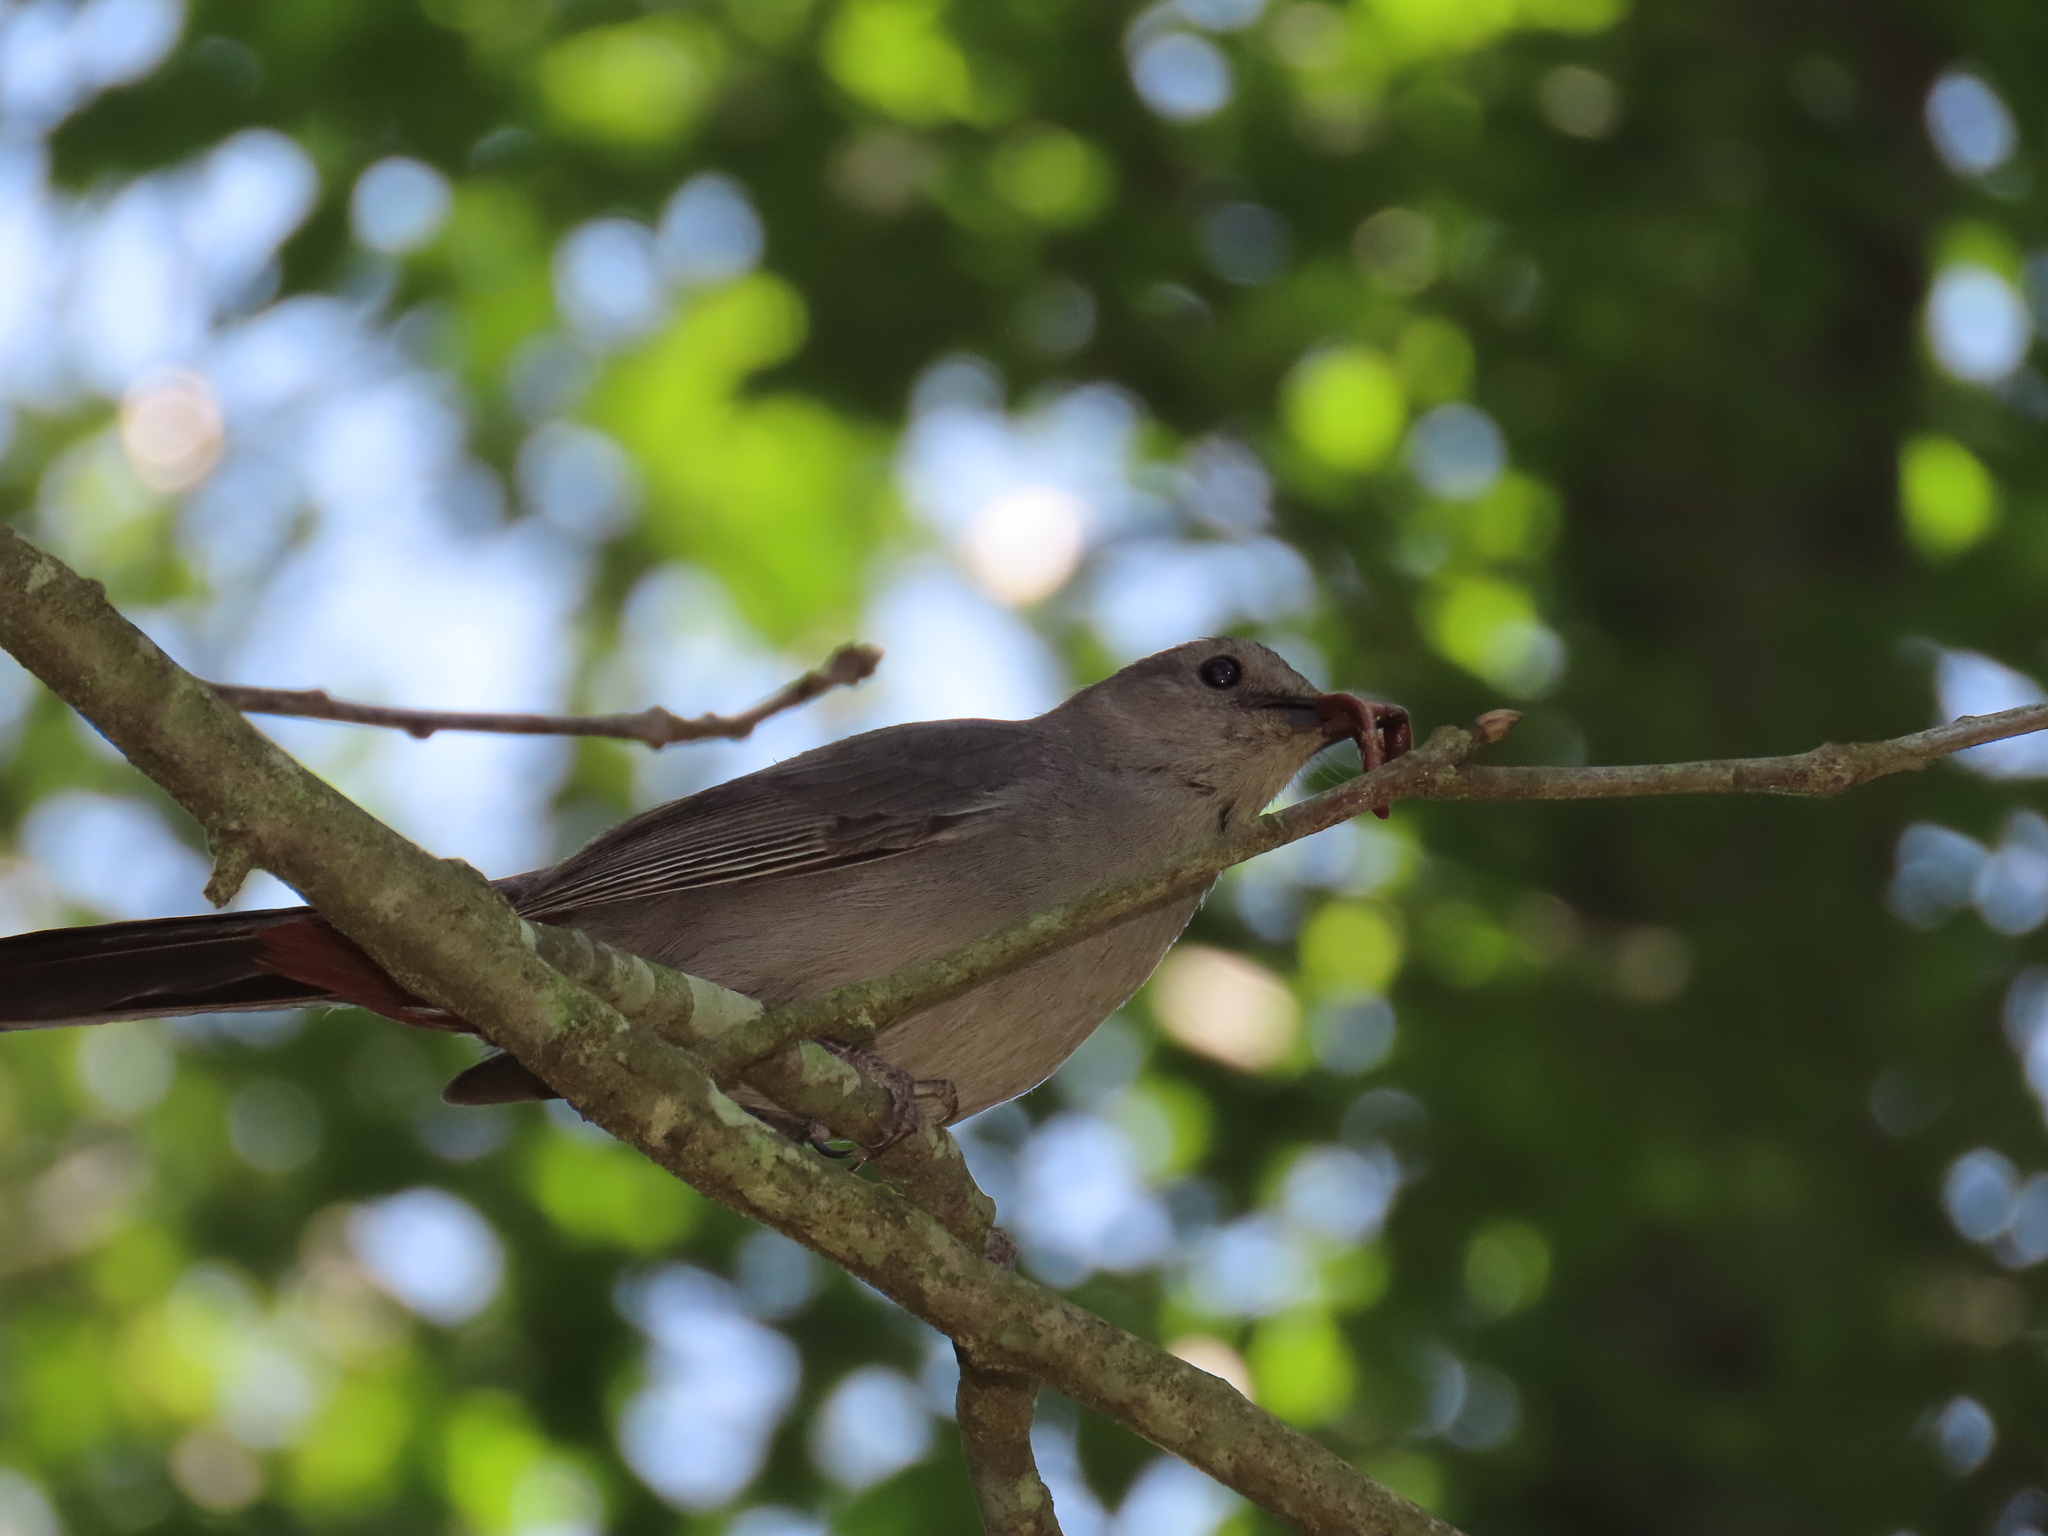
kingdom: Animalia
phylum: Chordata
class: Aves
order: Passeriformes
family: Mimidae
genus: Dumetella
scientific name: Dumetella carolinensis
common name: Gray catbird
